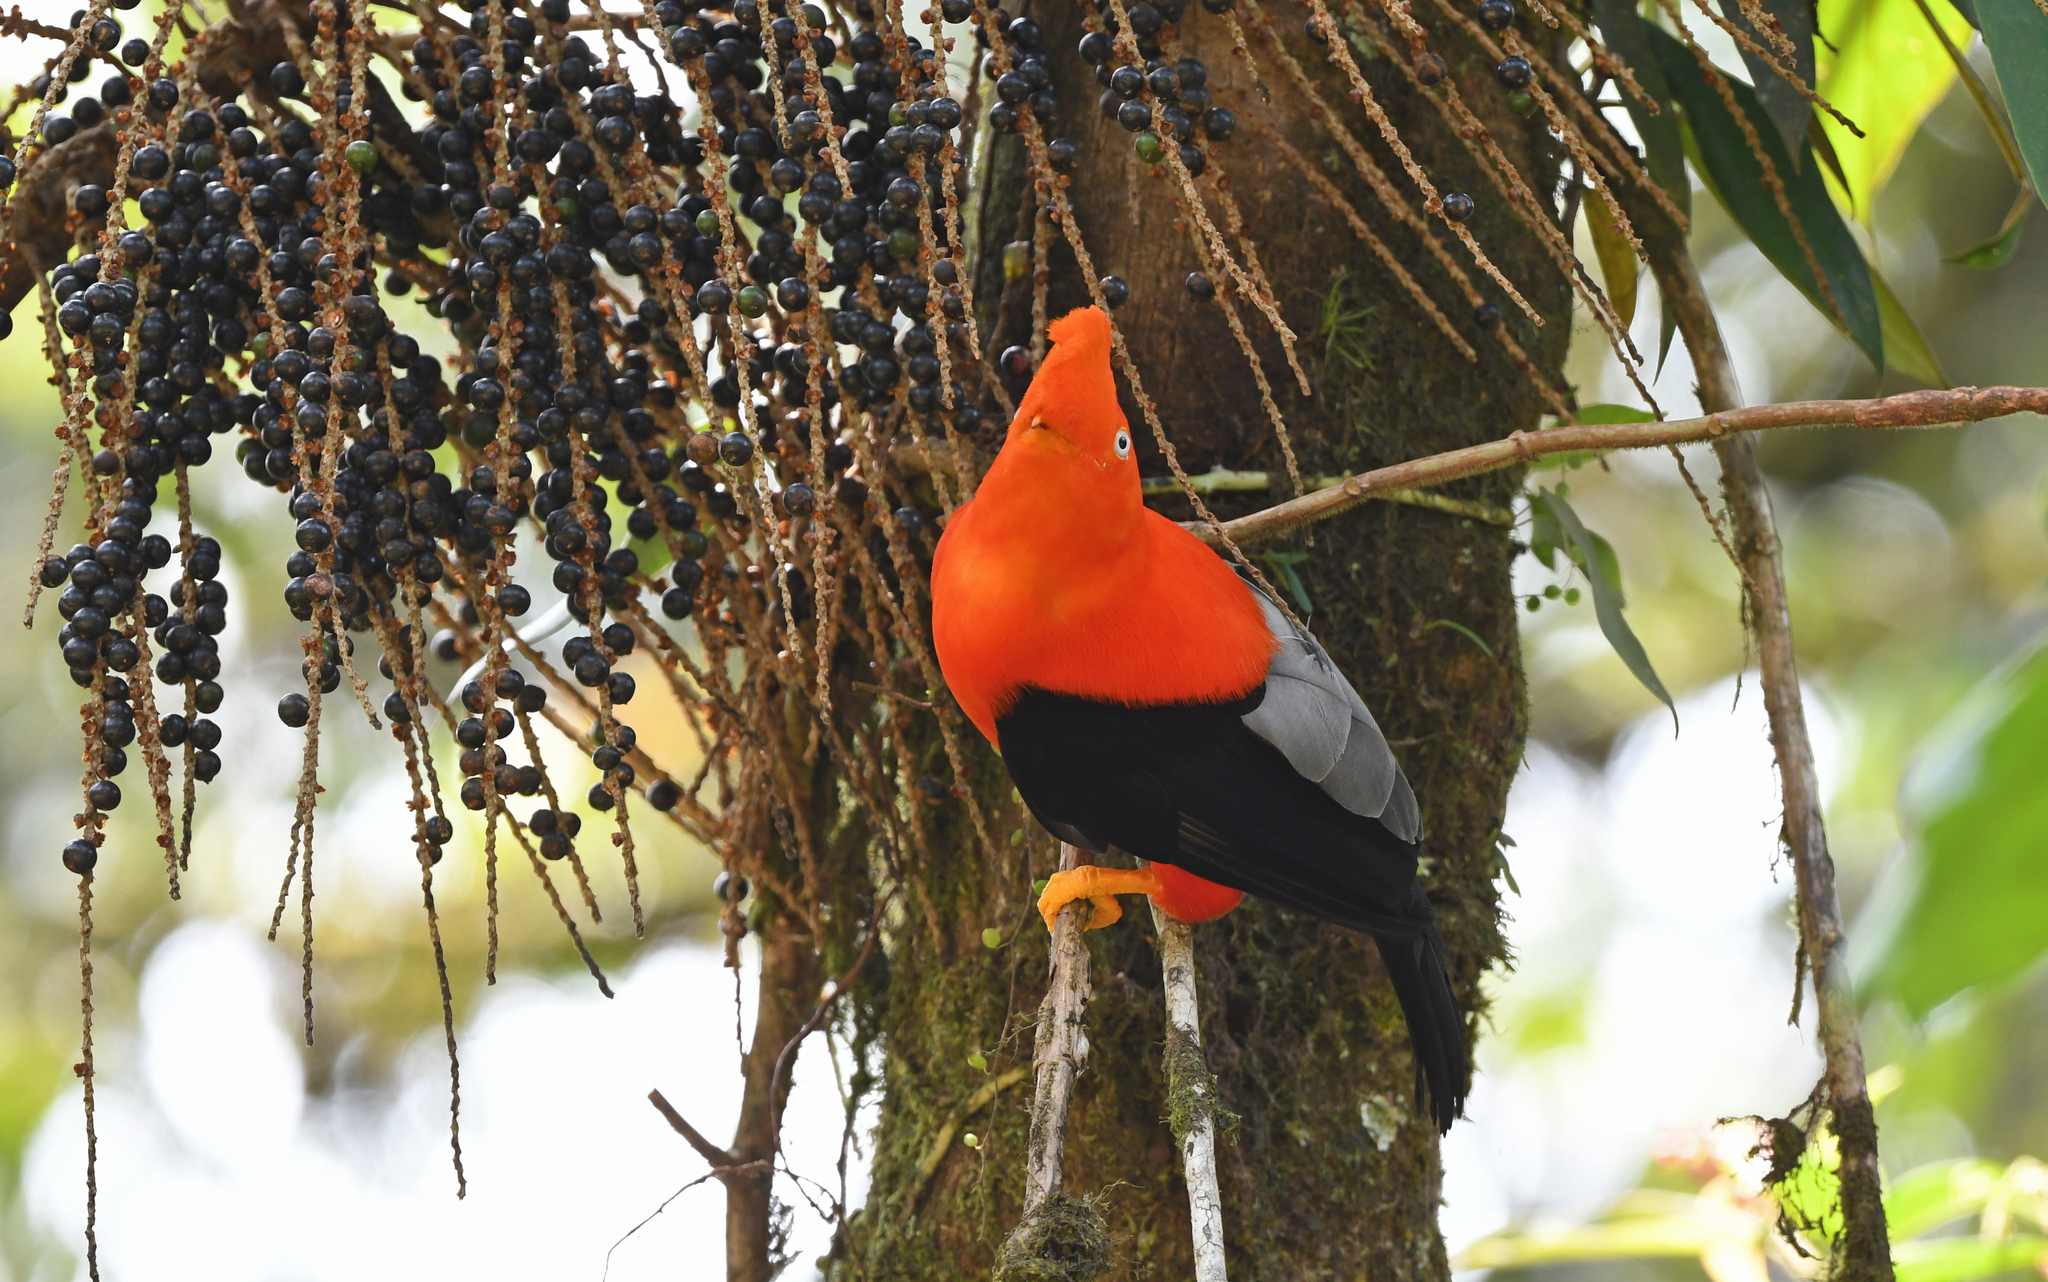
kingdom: Animalia
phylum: Chordata
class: Aves
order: Passeriformes
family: Cotingidae
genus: Rupicola
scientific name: Rupicola peruvianus
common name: Andean cock-of-the-rock
